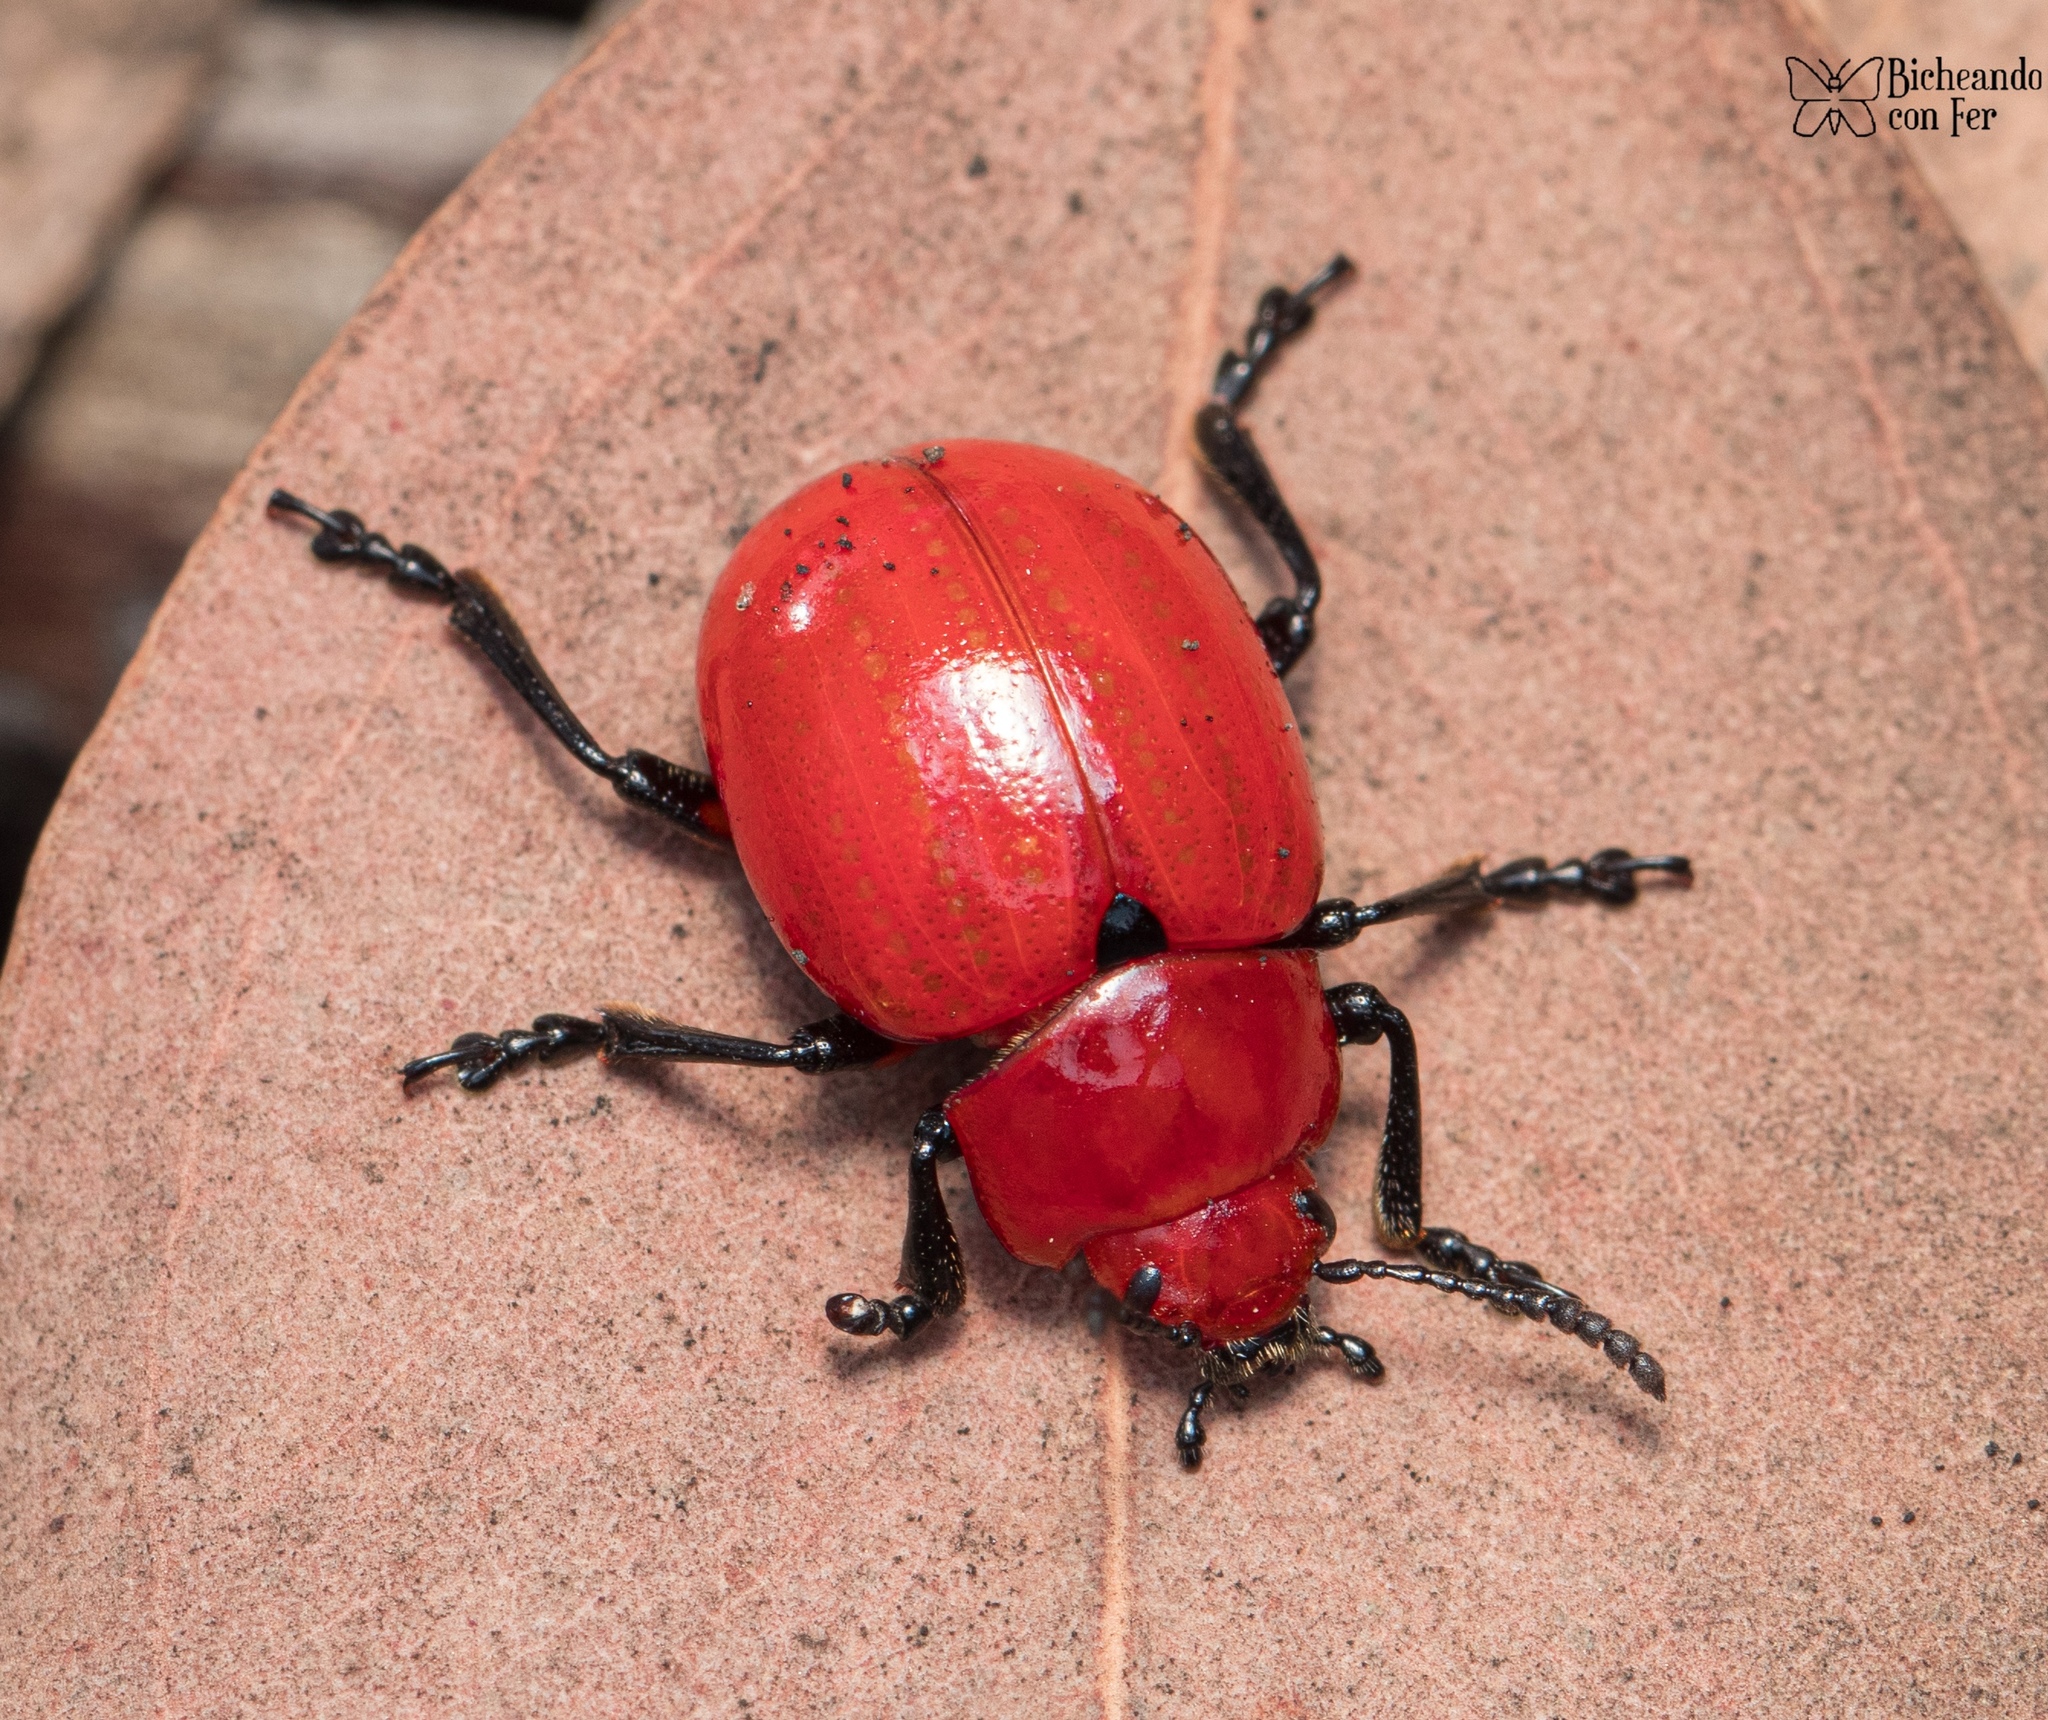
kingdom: Animalia
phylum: Arthropoda
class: Insecta
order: Coleoptera
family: Chrysomelidae
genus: Leptinotarsa
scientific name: Leptinotarsa rubiginosa
